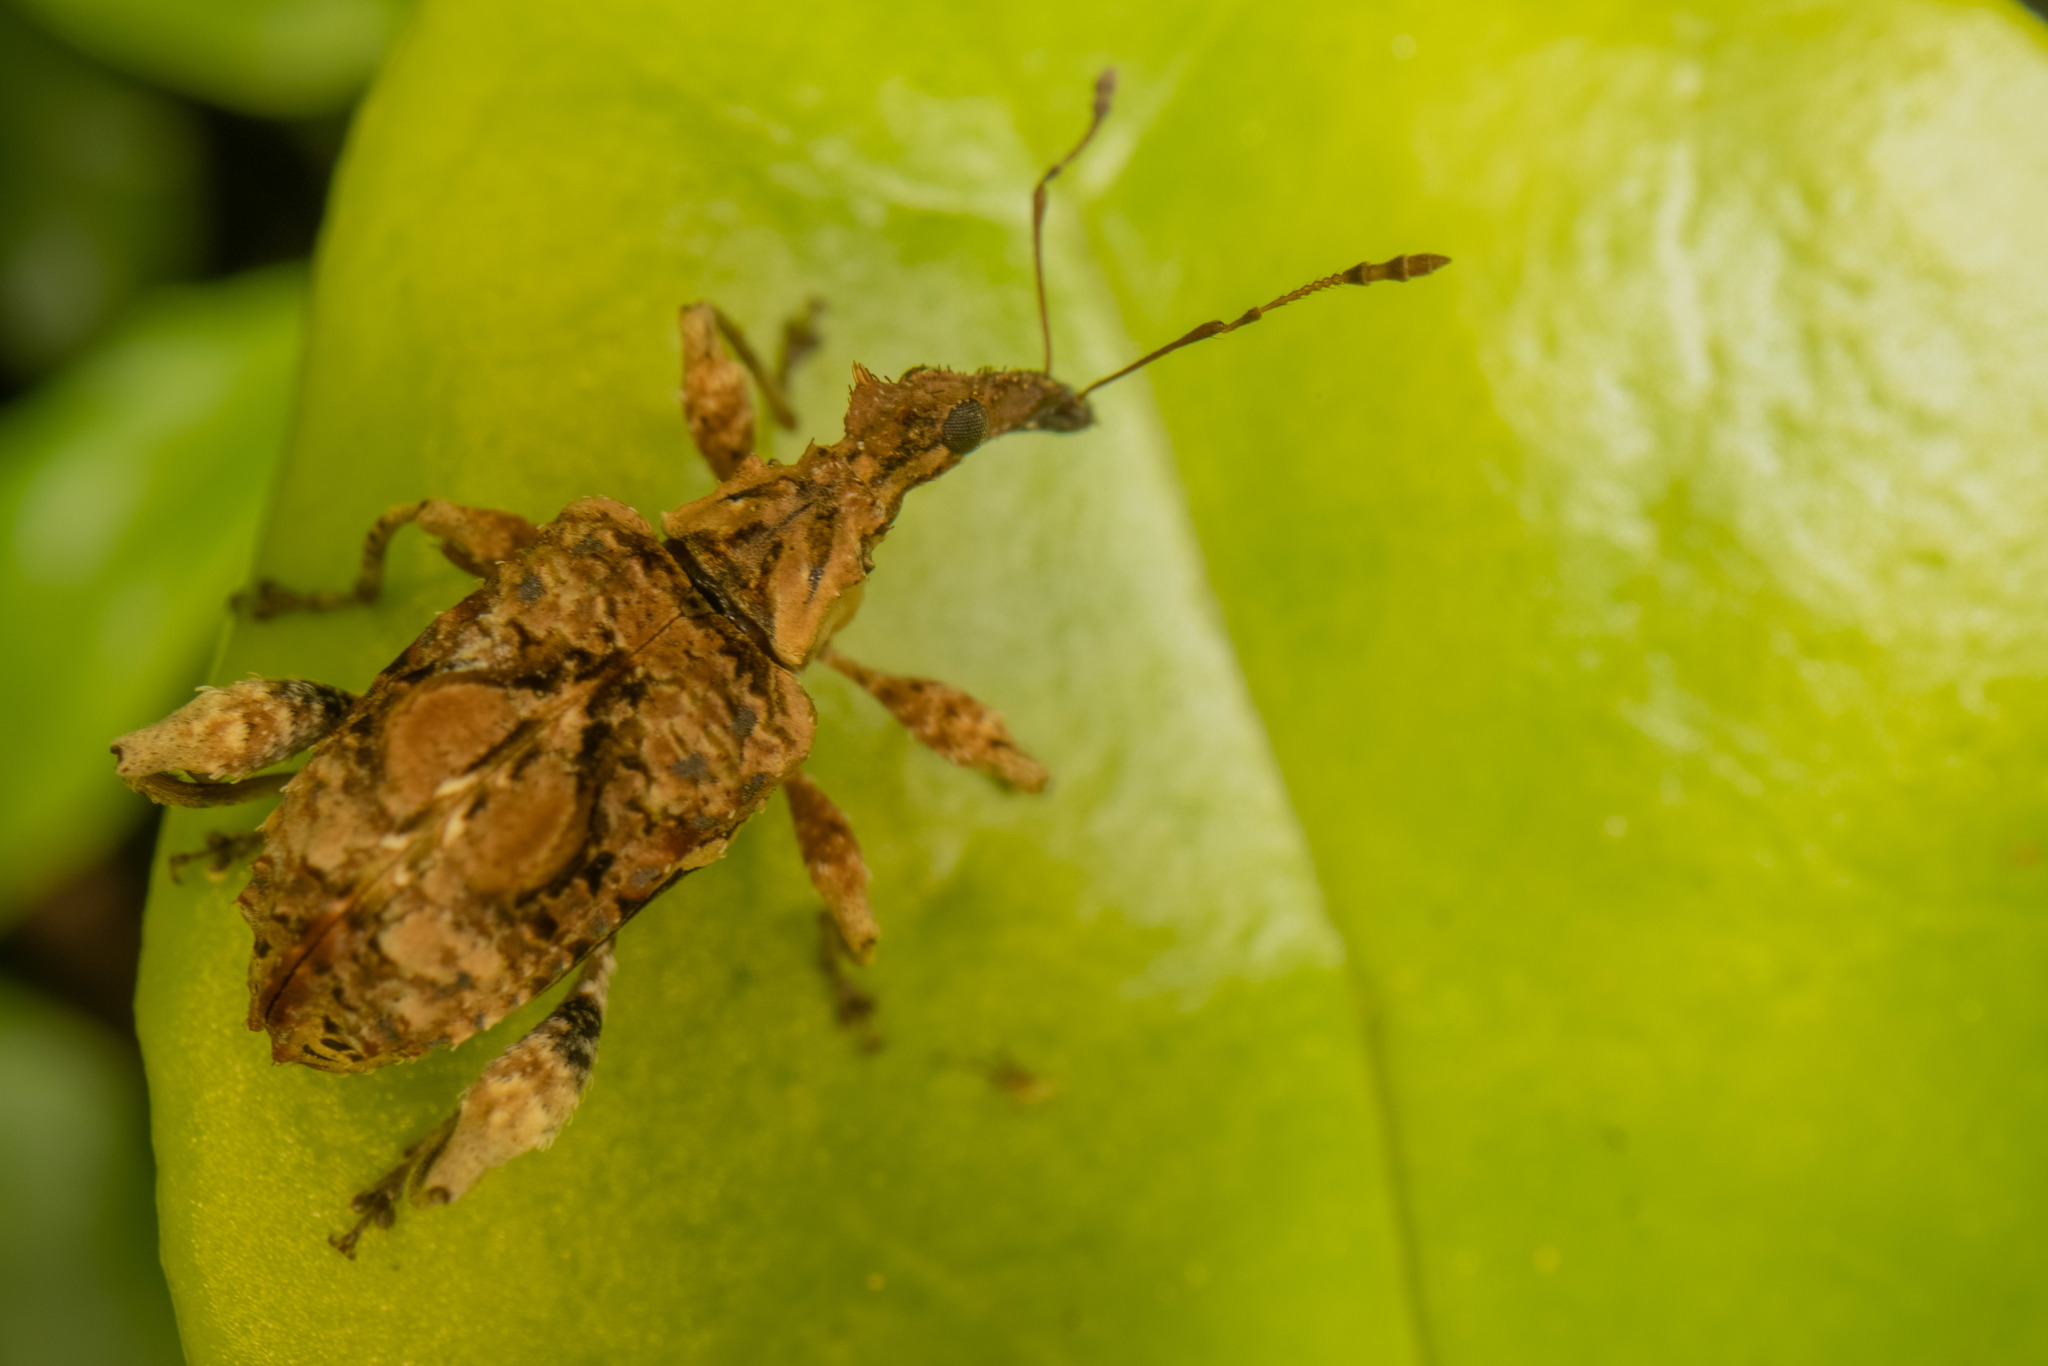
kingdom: Animalia
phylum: Arthropoda
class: Insecta
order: Coleoptera
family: Curculionidae
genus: Stephanorhynchus
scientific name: Stephanorhynchus curvipes
